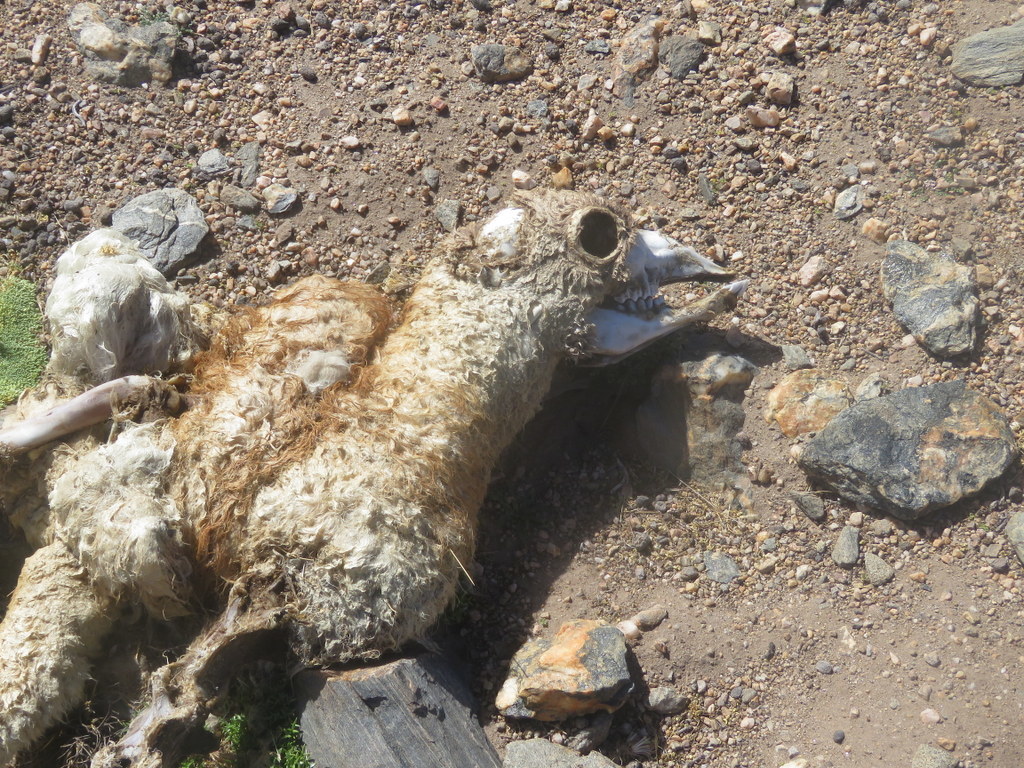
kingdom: Animalia
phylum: Chordata
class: Mammalia
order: Artiodactyla
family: Camelidae
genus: Lama
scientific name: Lama glama
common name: Llama
